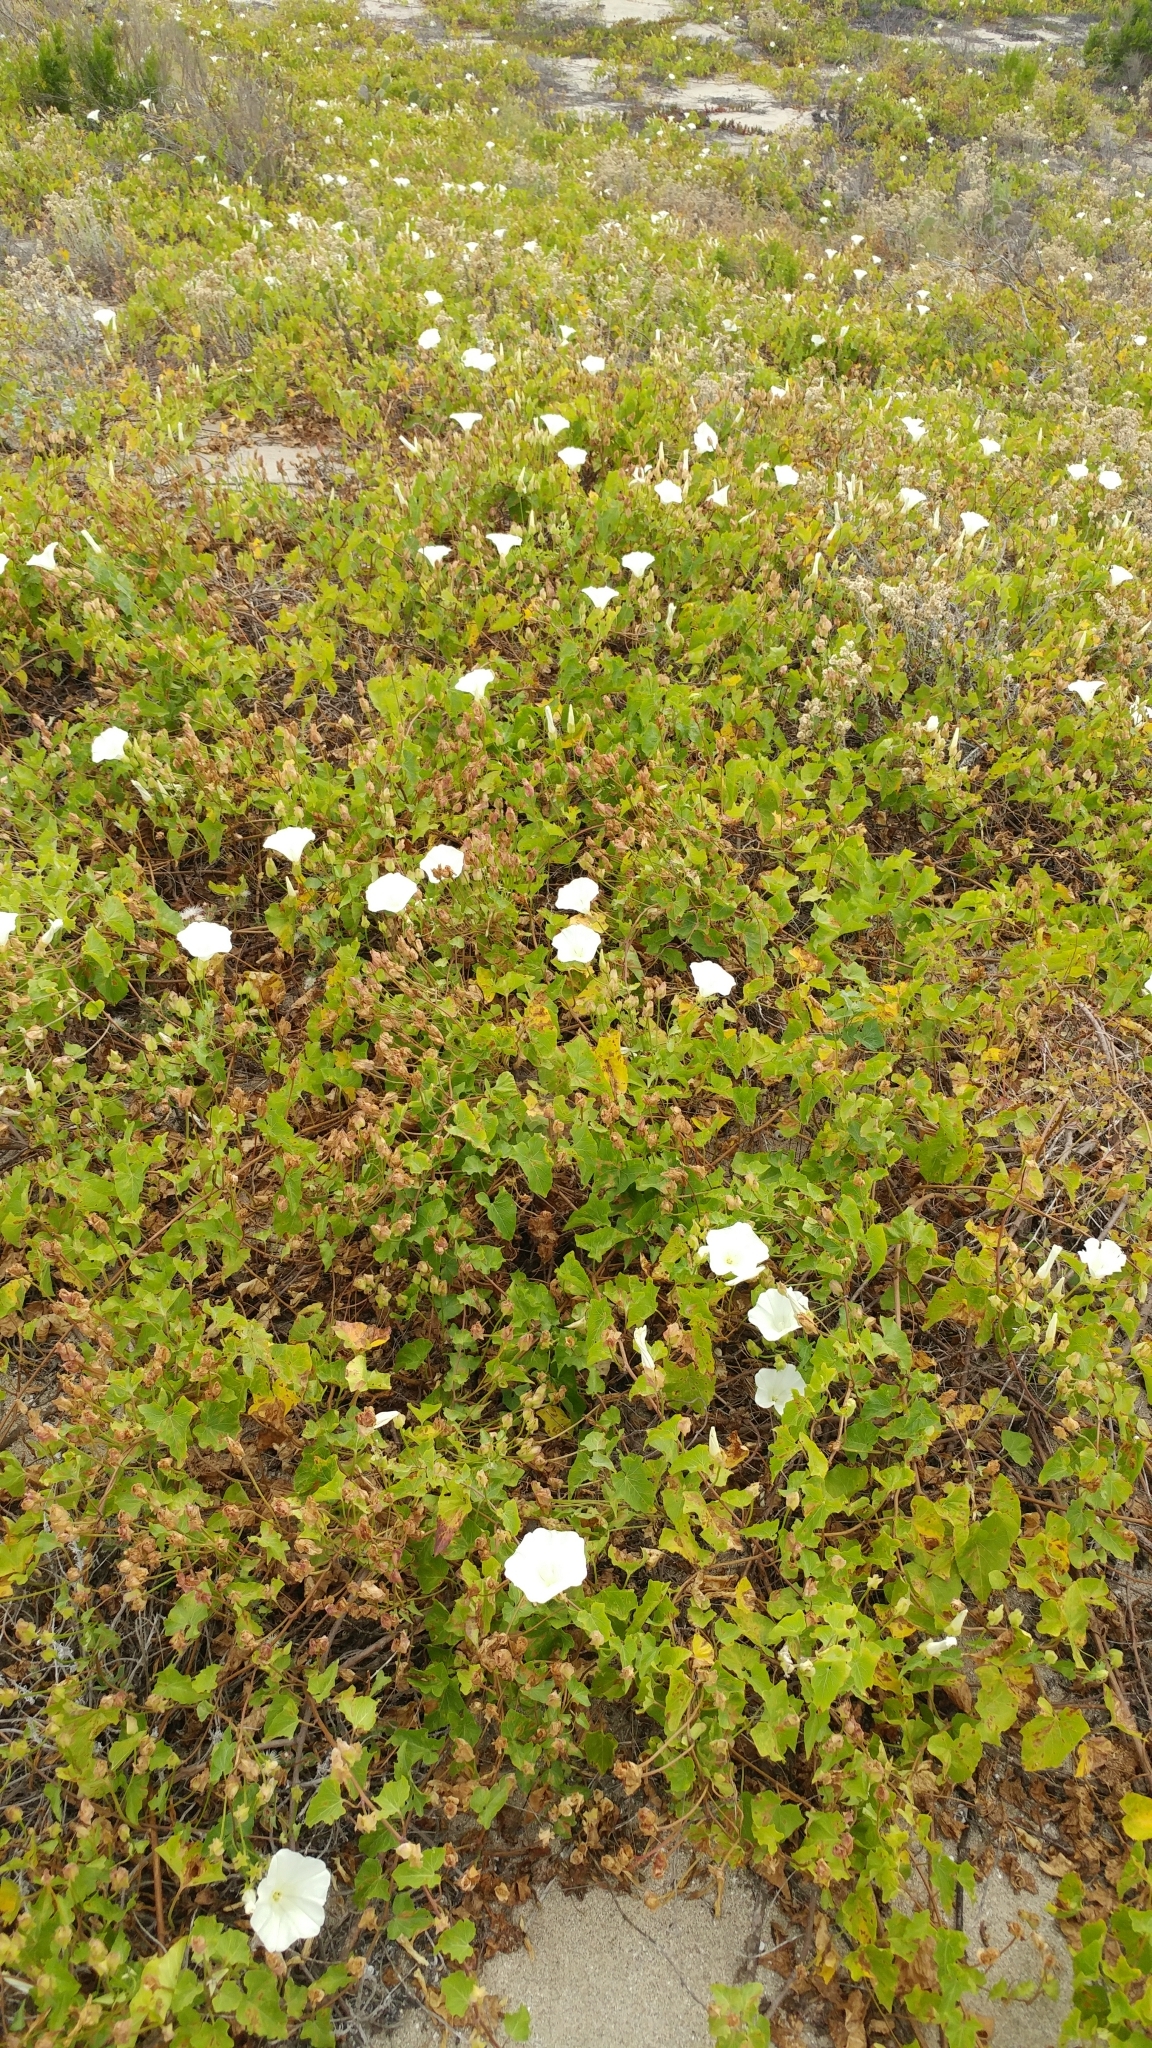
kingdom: Plantae
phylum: Tracheophyta
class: Magnoliopsida
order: Solanales
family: Convolvulaceae
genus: Calystegia
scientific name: Calystegia macrostegia
